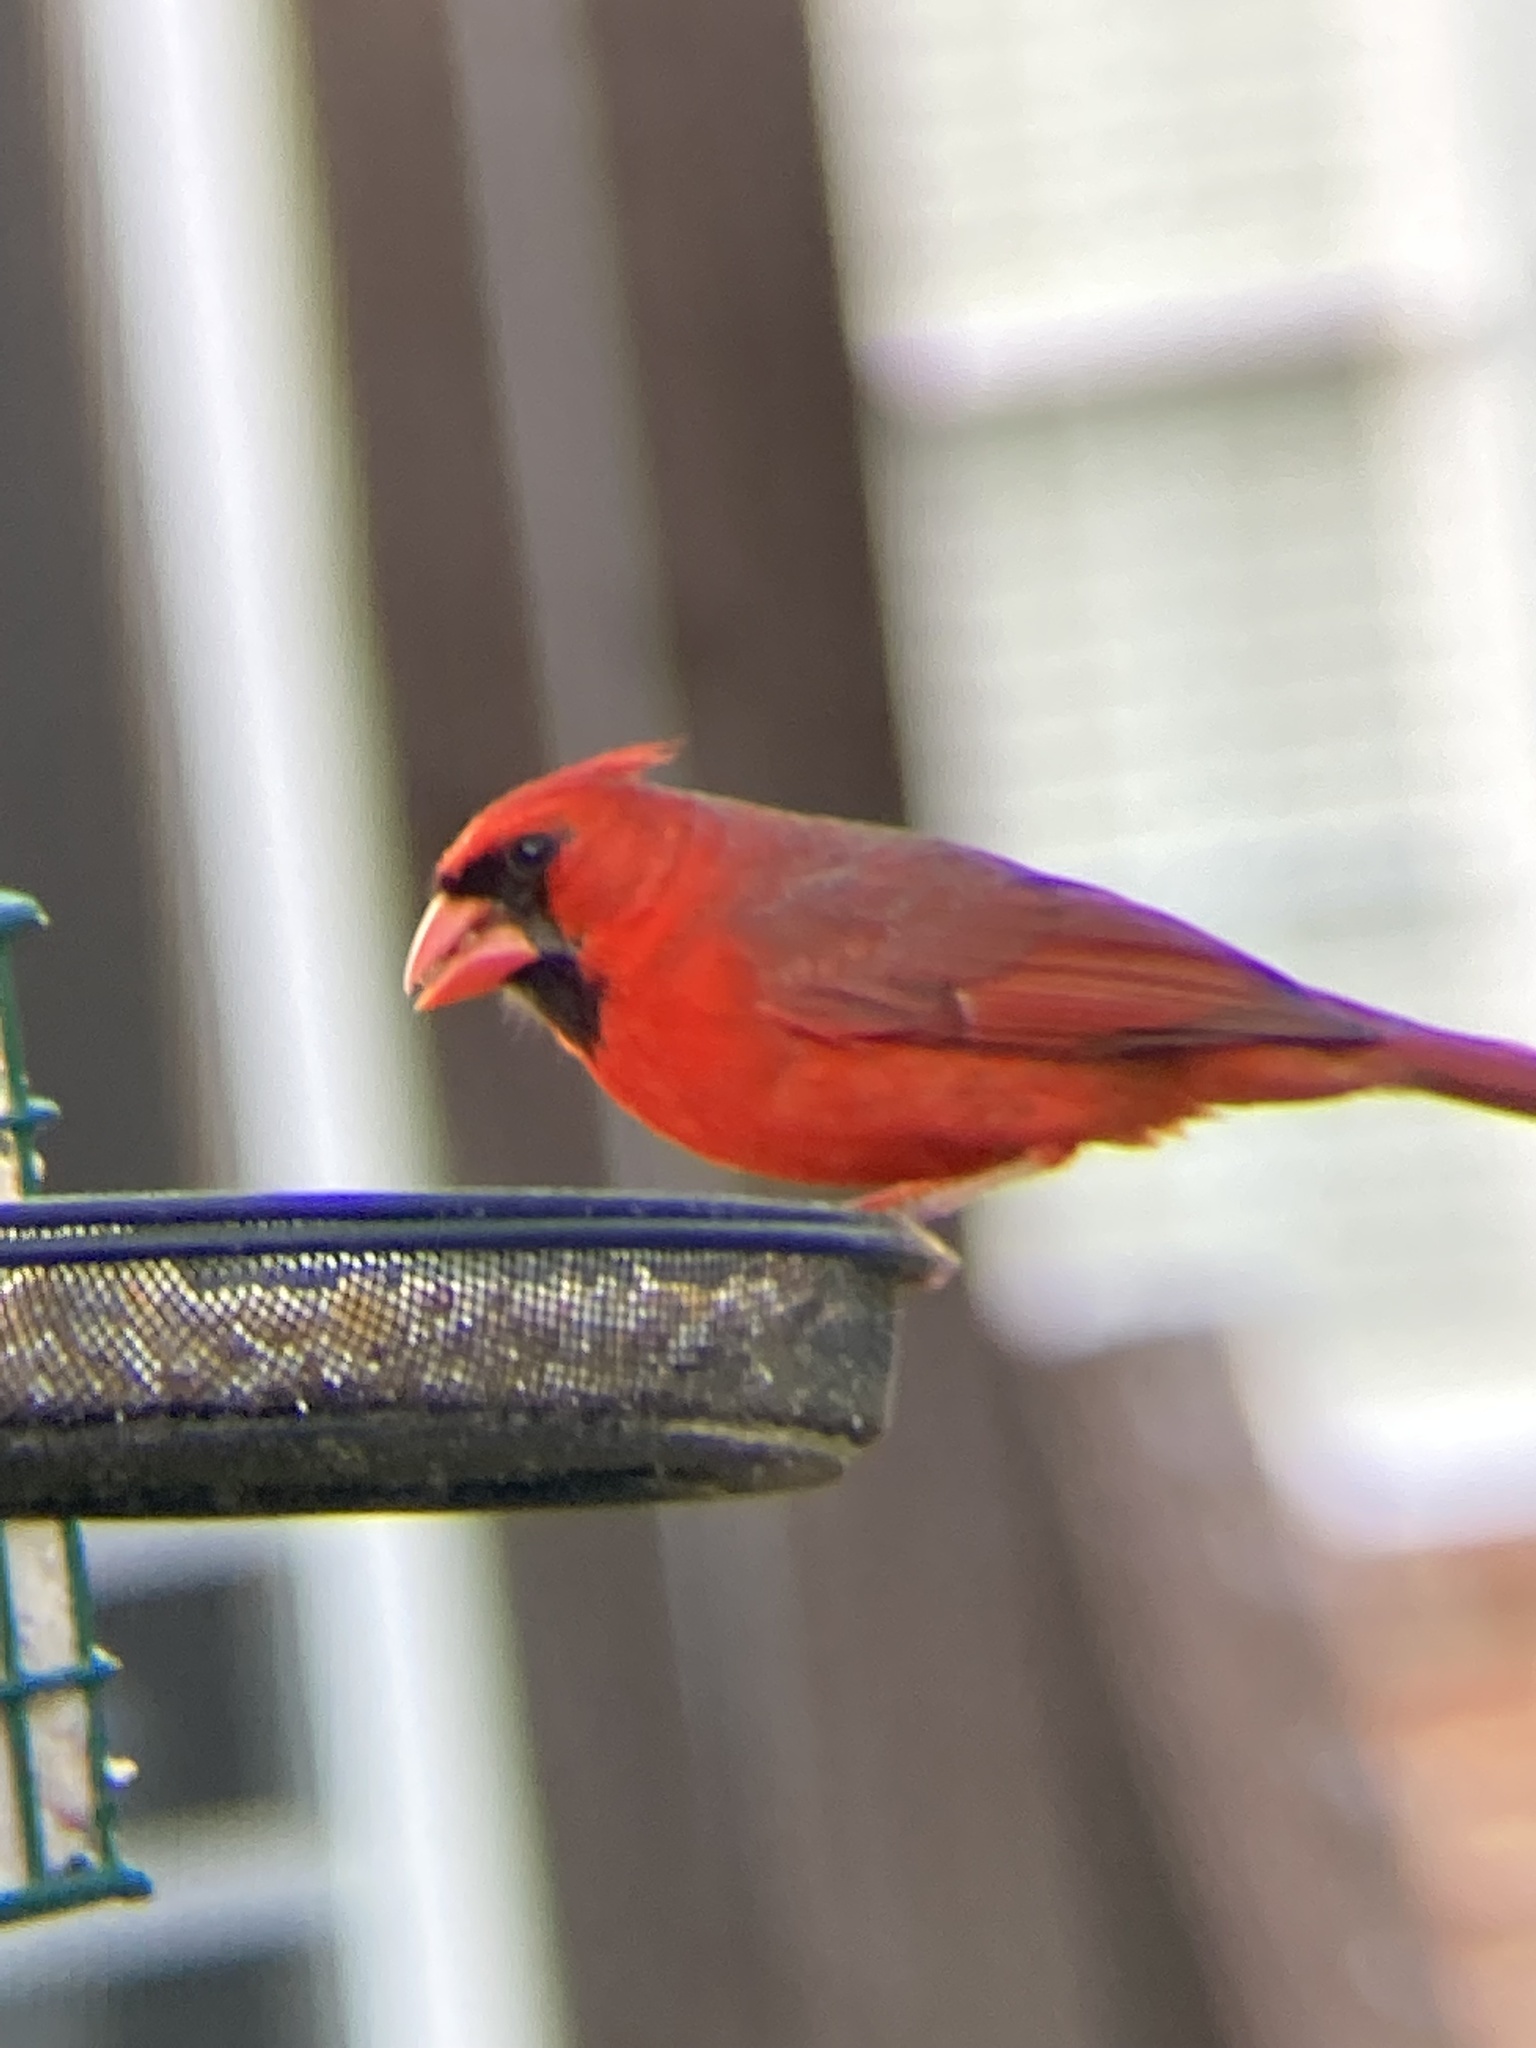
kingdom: Animalia
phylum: Chordata
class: Aves
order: Passeriformes
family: Cardinalidae
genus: Cardinalis
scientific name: Cardinalis cardinalis
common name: Northern cardinal
